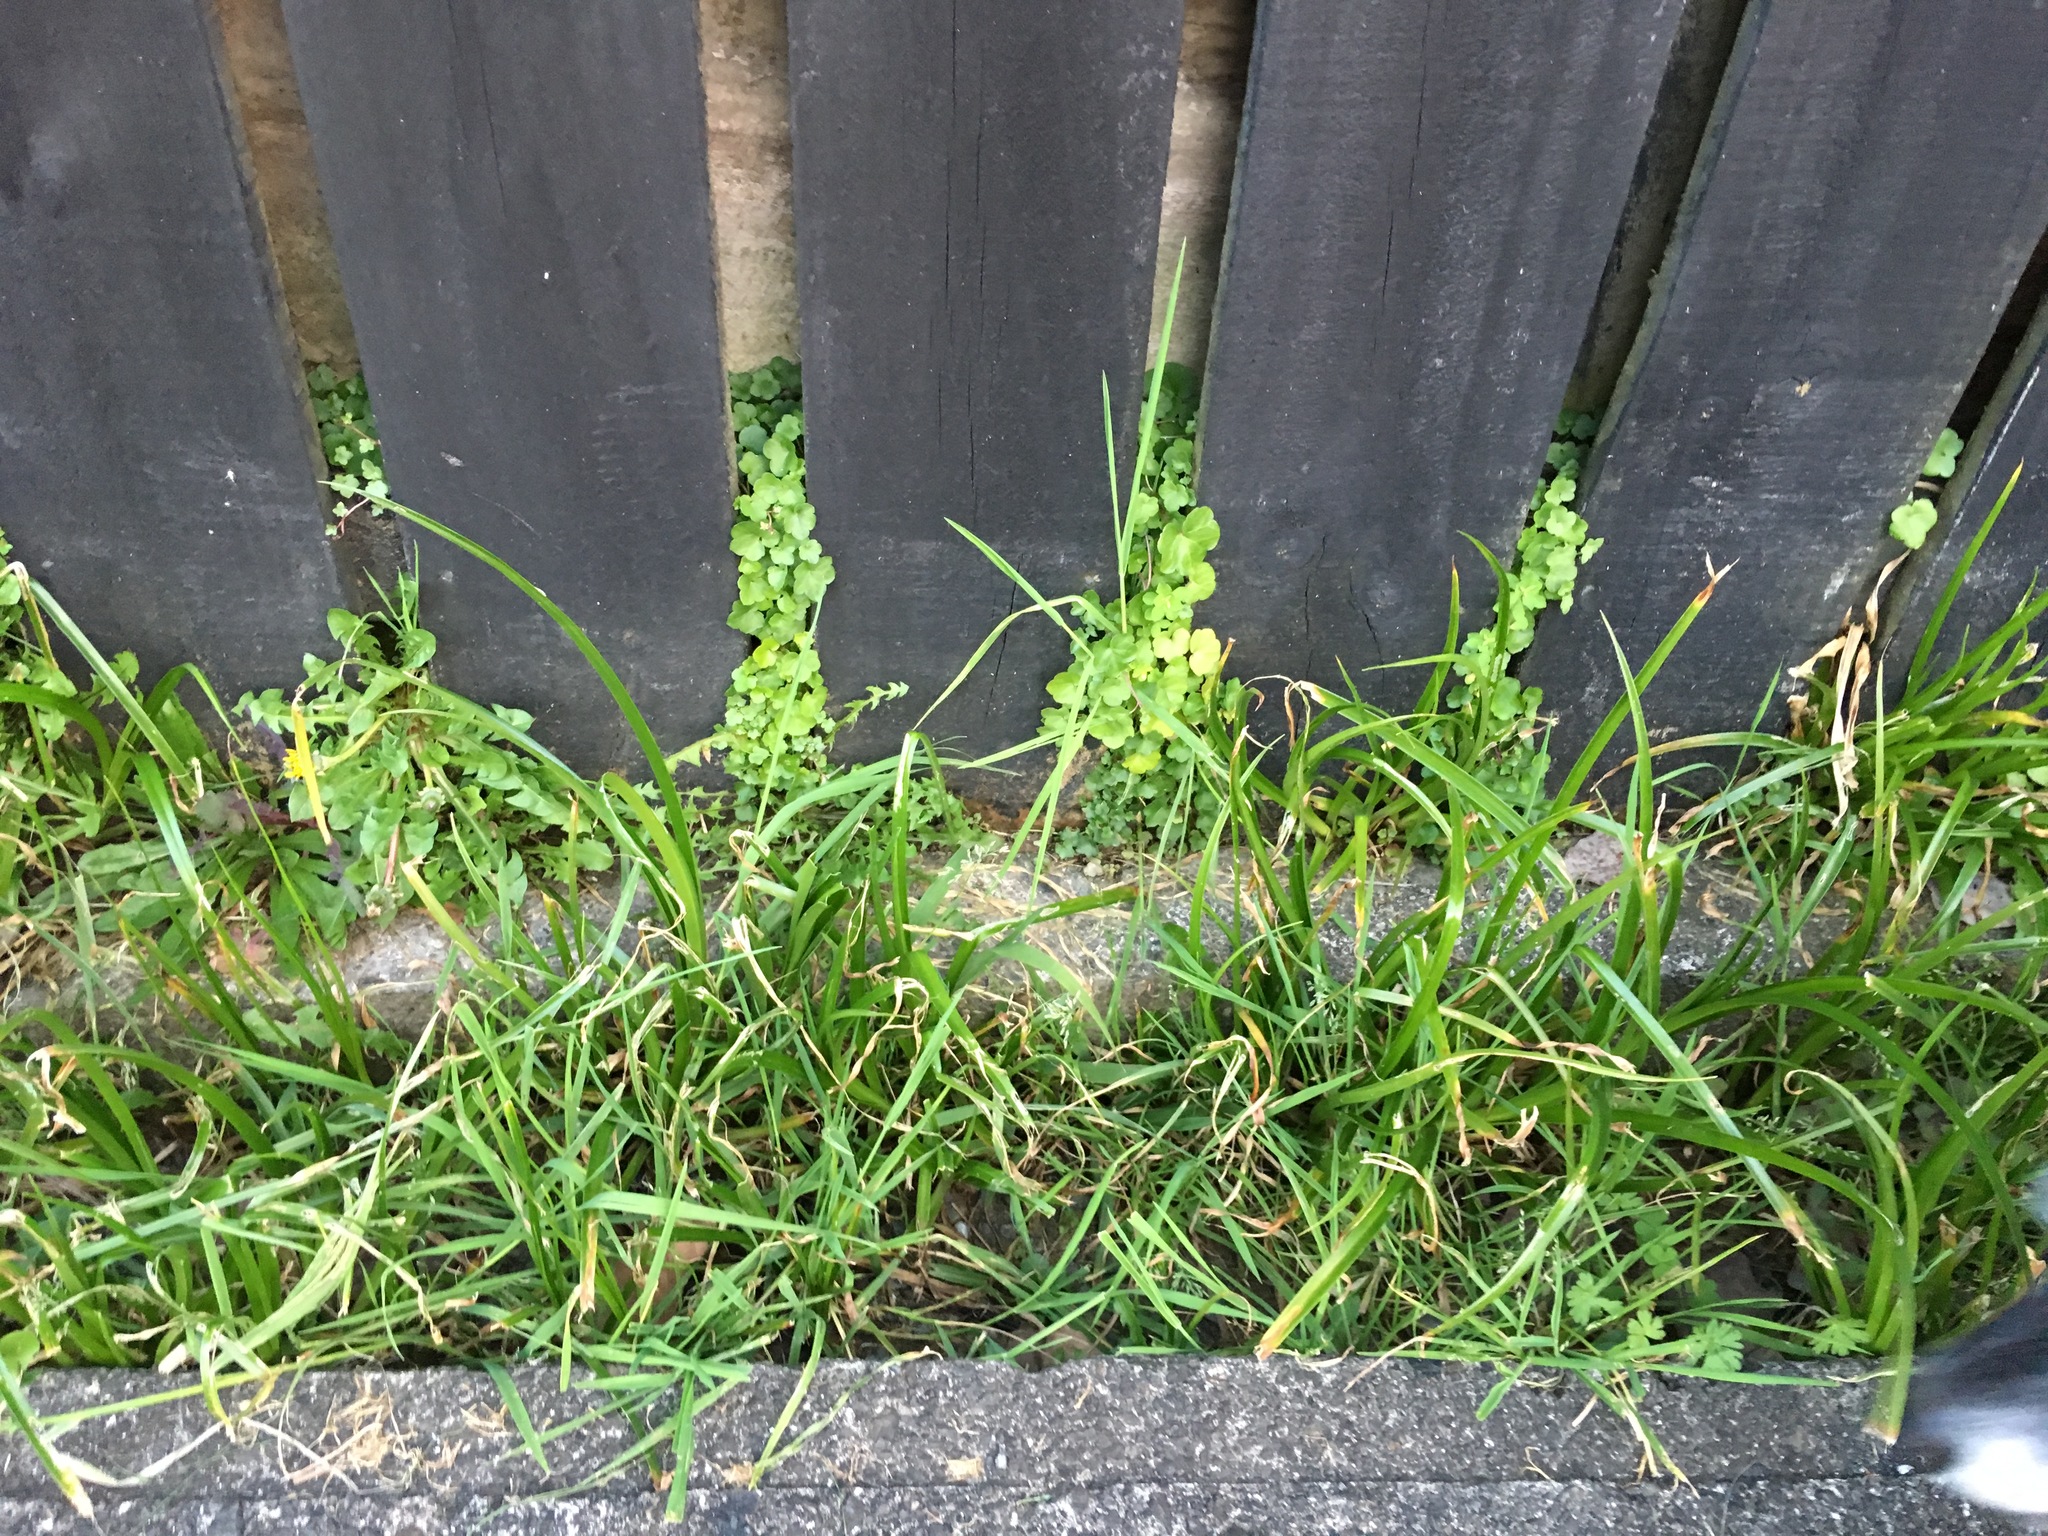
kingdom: Plantae
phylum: Tracheophyta
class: Magnoliopsida
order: Lamiales
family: Plantaginaceae
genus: Cymbalaria
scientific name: Cymbalaria muralis
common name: Ivy-leaved toadflax
